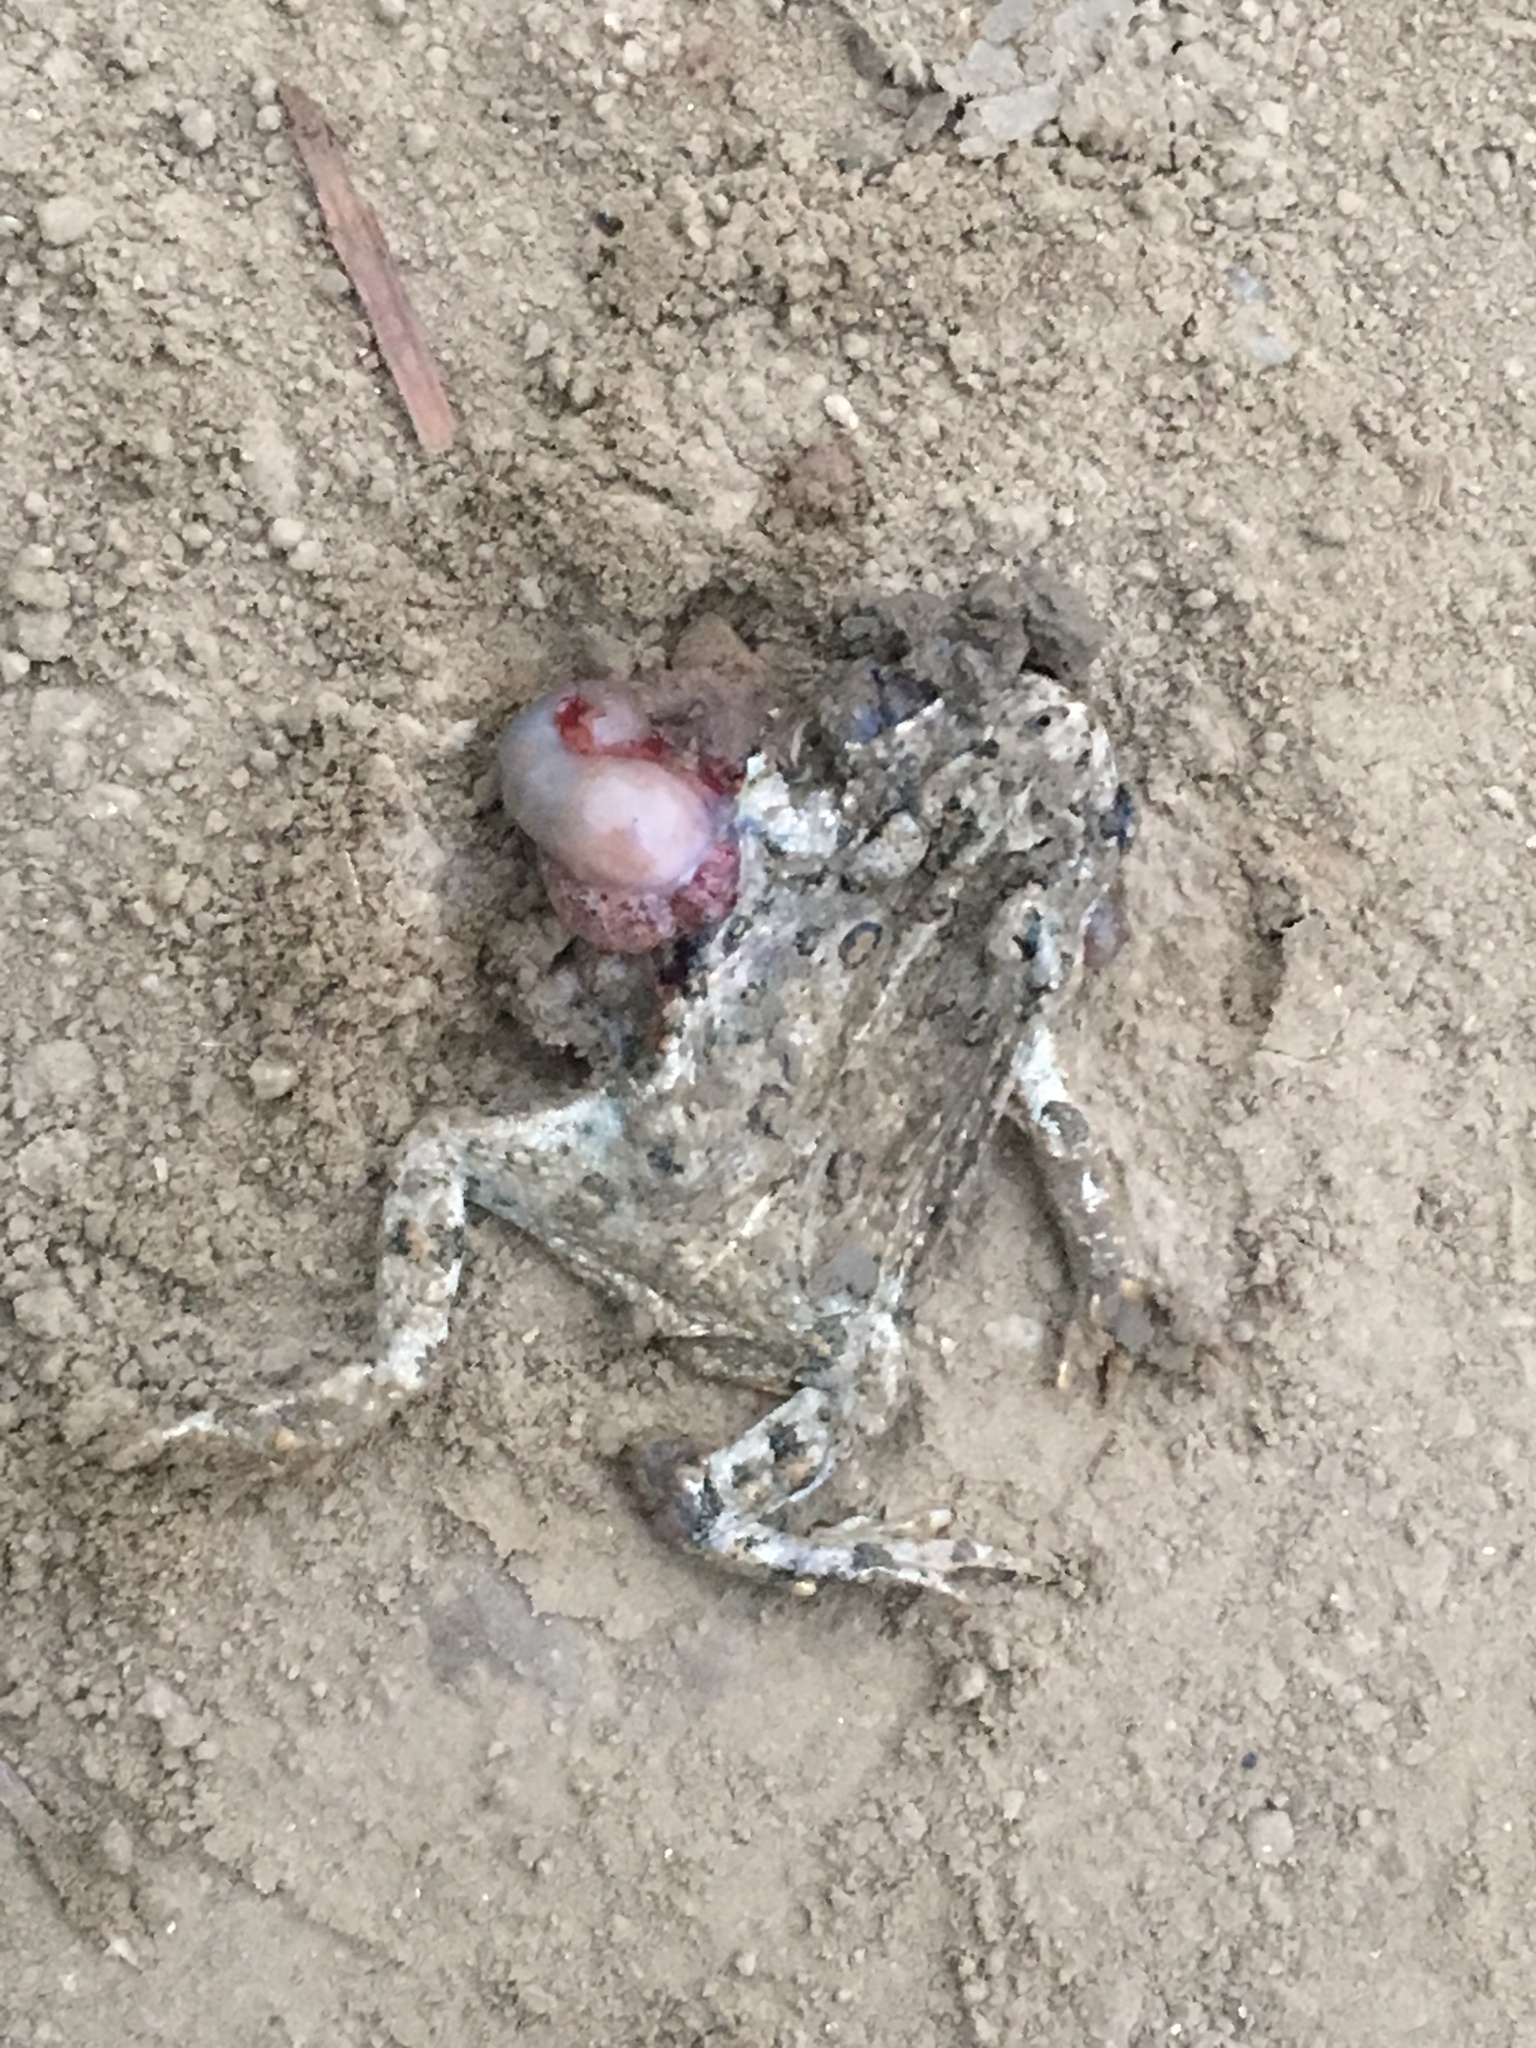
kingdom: Animalia
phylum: Chordata
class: Amphibia
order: Anura
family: Bufonidae
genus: Anaxyrus
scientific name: Anaxyrus boreas
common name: Western toad
